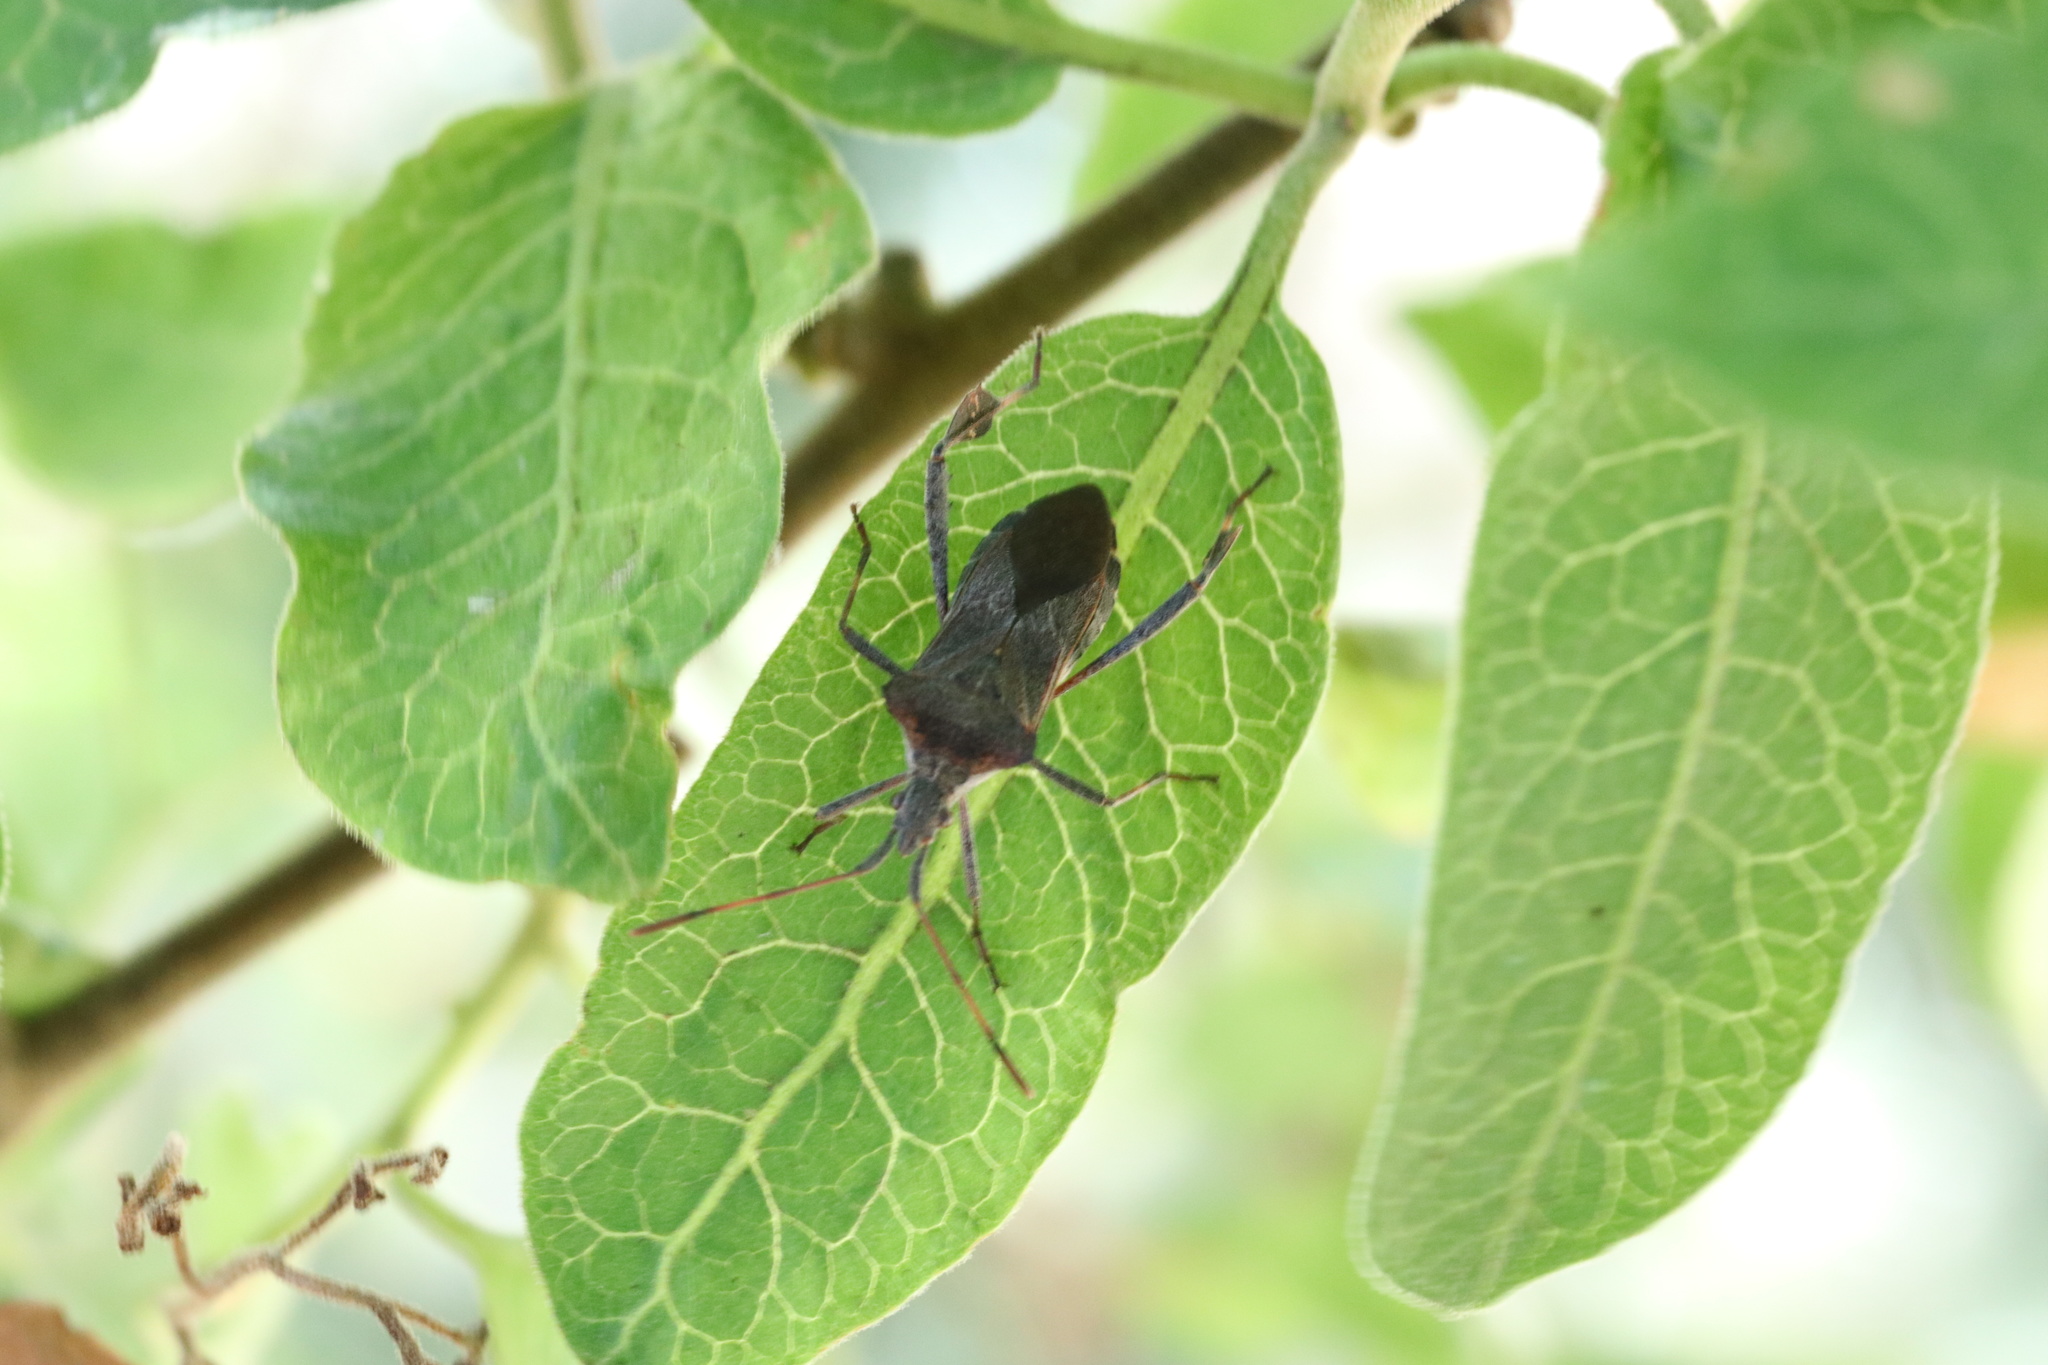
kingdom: Animalia
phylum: Arthropoda
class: Insecta
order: Hemiptera
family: Coreidae
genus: Leptoglossus
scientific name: Leptoglossus chilensis
